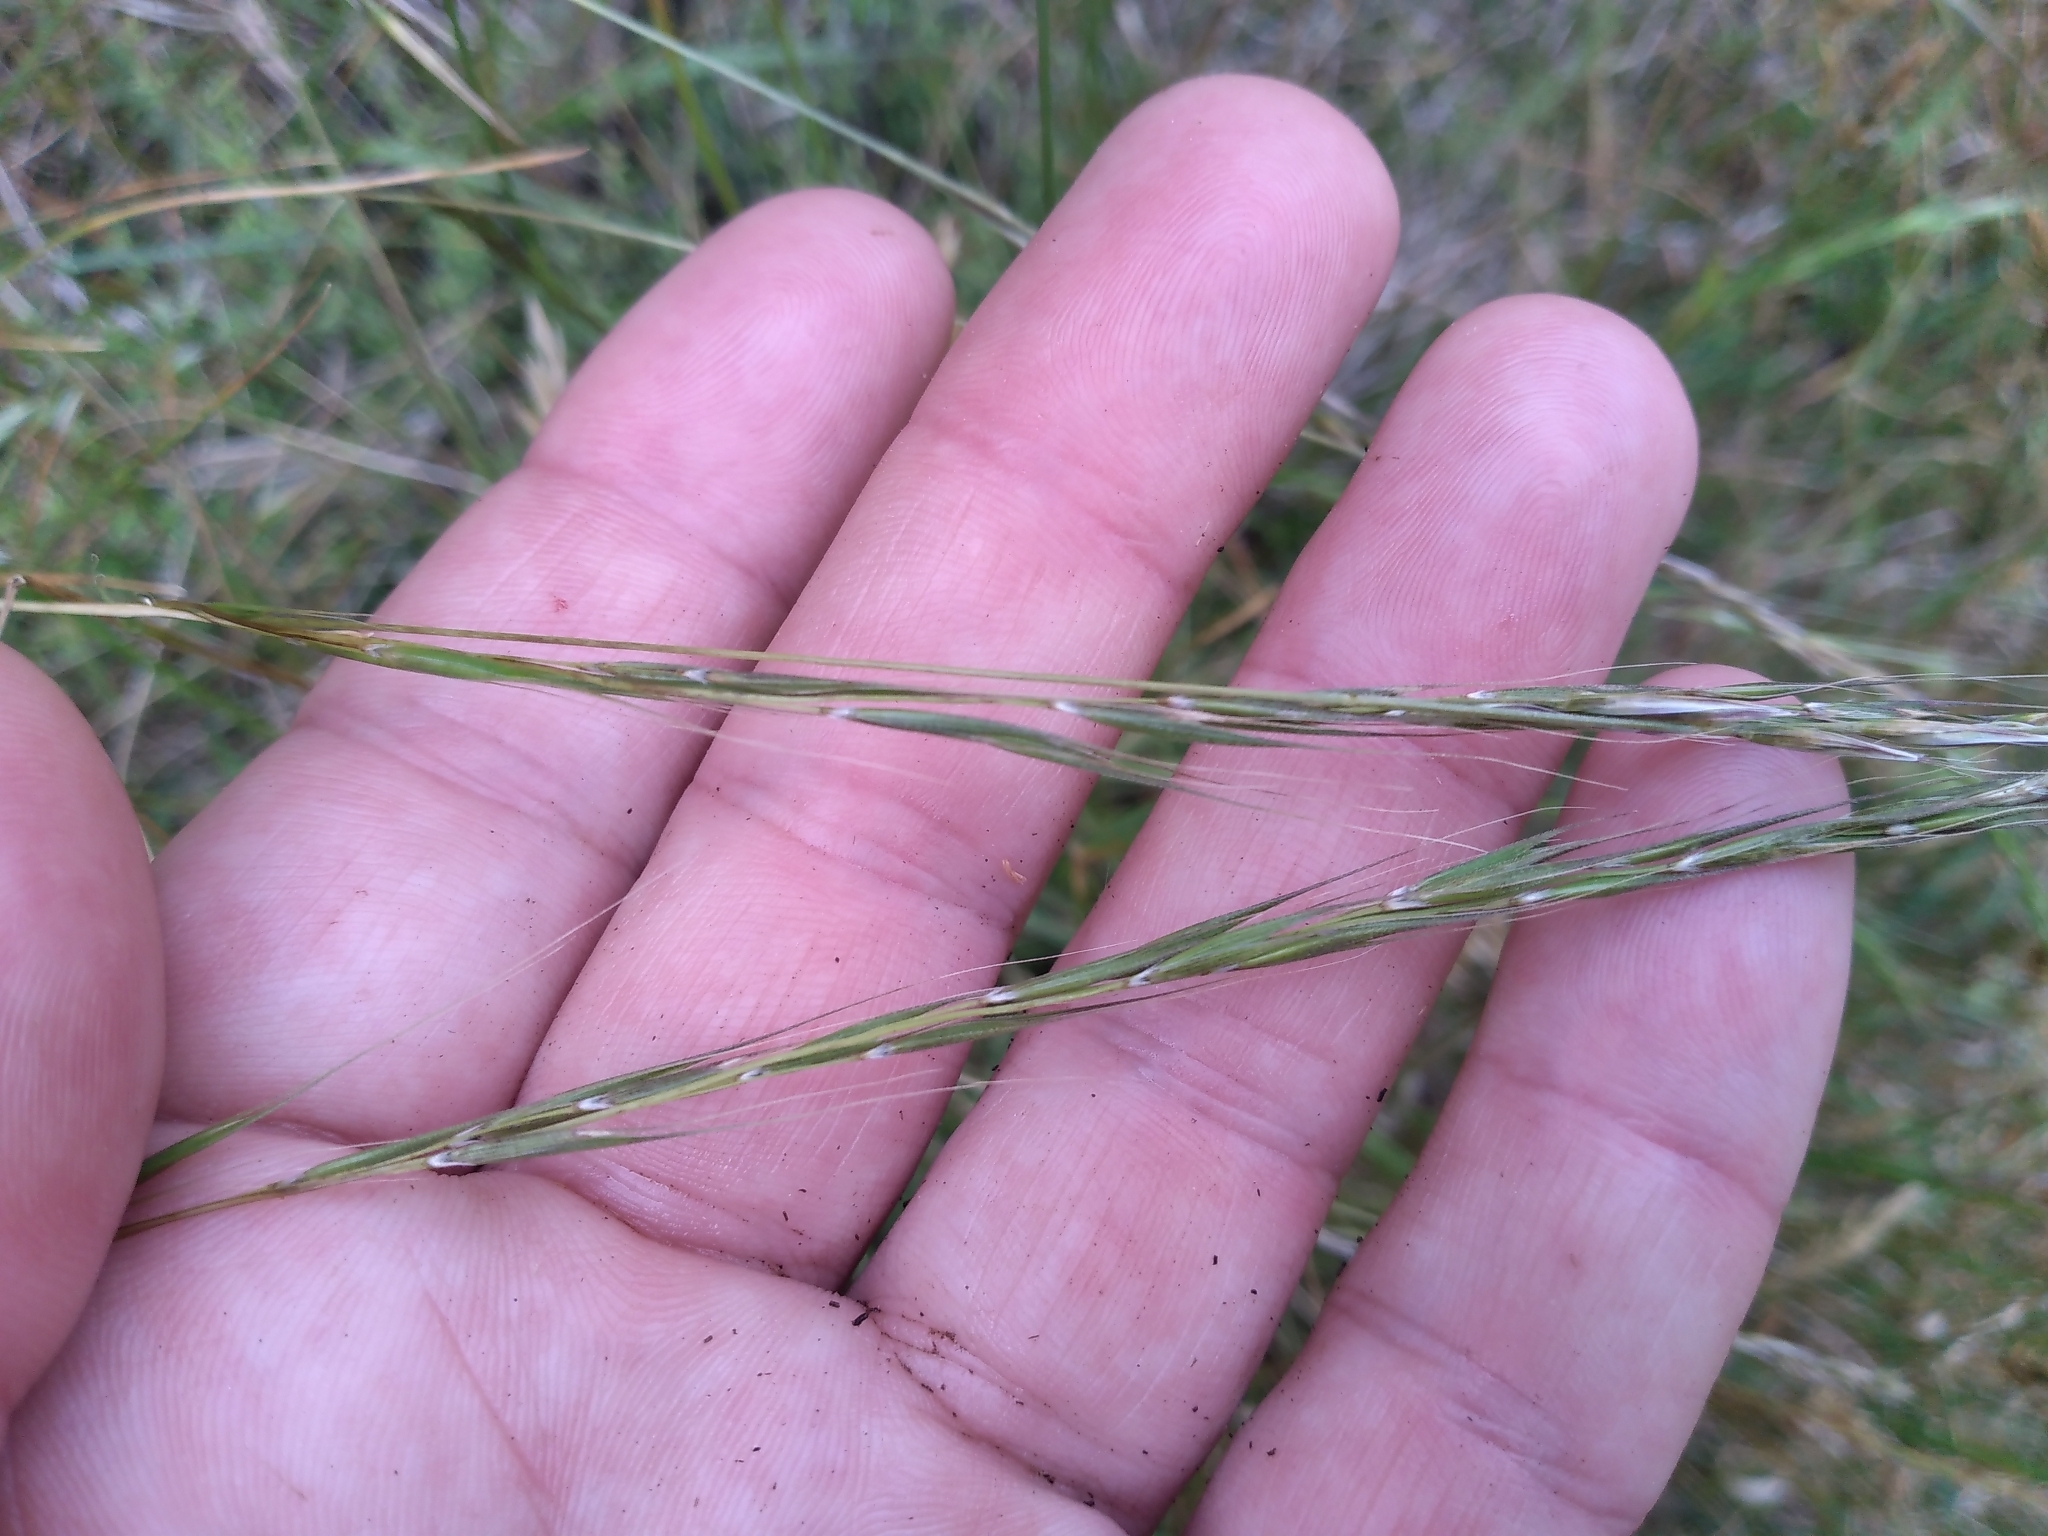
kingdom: Plantae
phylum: Tracheophyta
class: Liliopsida
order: Poales
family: Poaceae
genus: Microlaena
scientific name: Microlaena stipoides
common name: Meadow ricegrass
